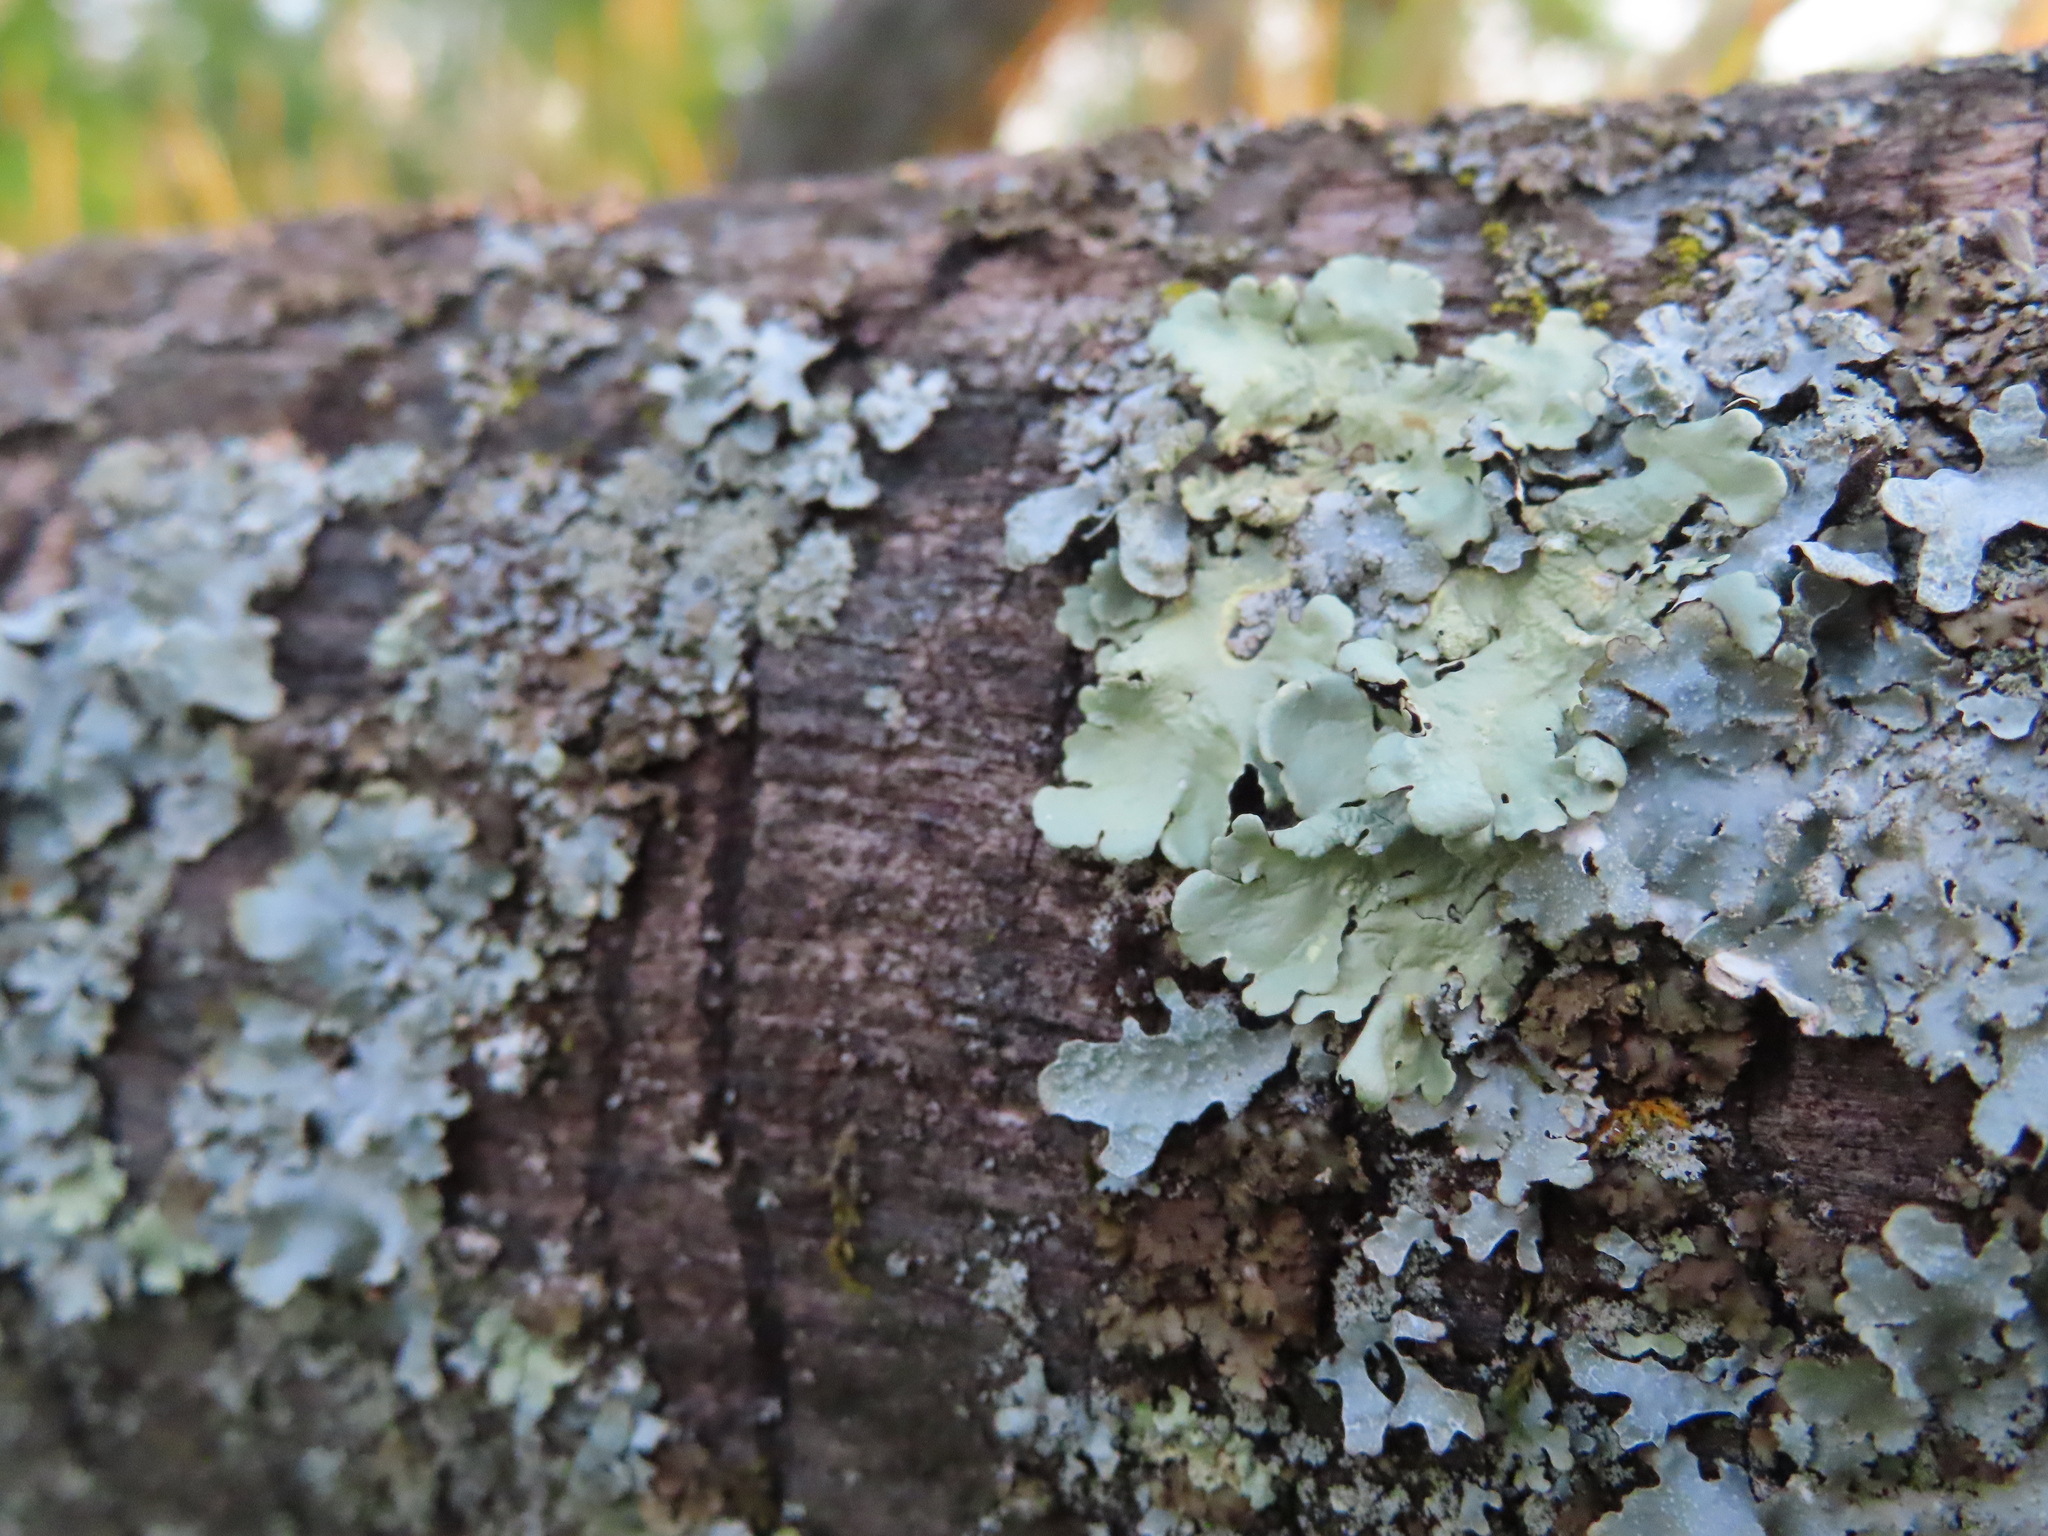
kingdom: Fungi
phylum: Ascomycota
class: Lecanoromycetes
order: Lecanorales
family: Parmeliaceae
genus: Flavoparmelia
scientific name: Flavoparmelia caperata
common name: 40-mile per hour lichen
